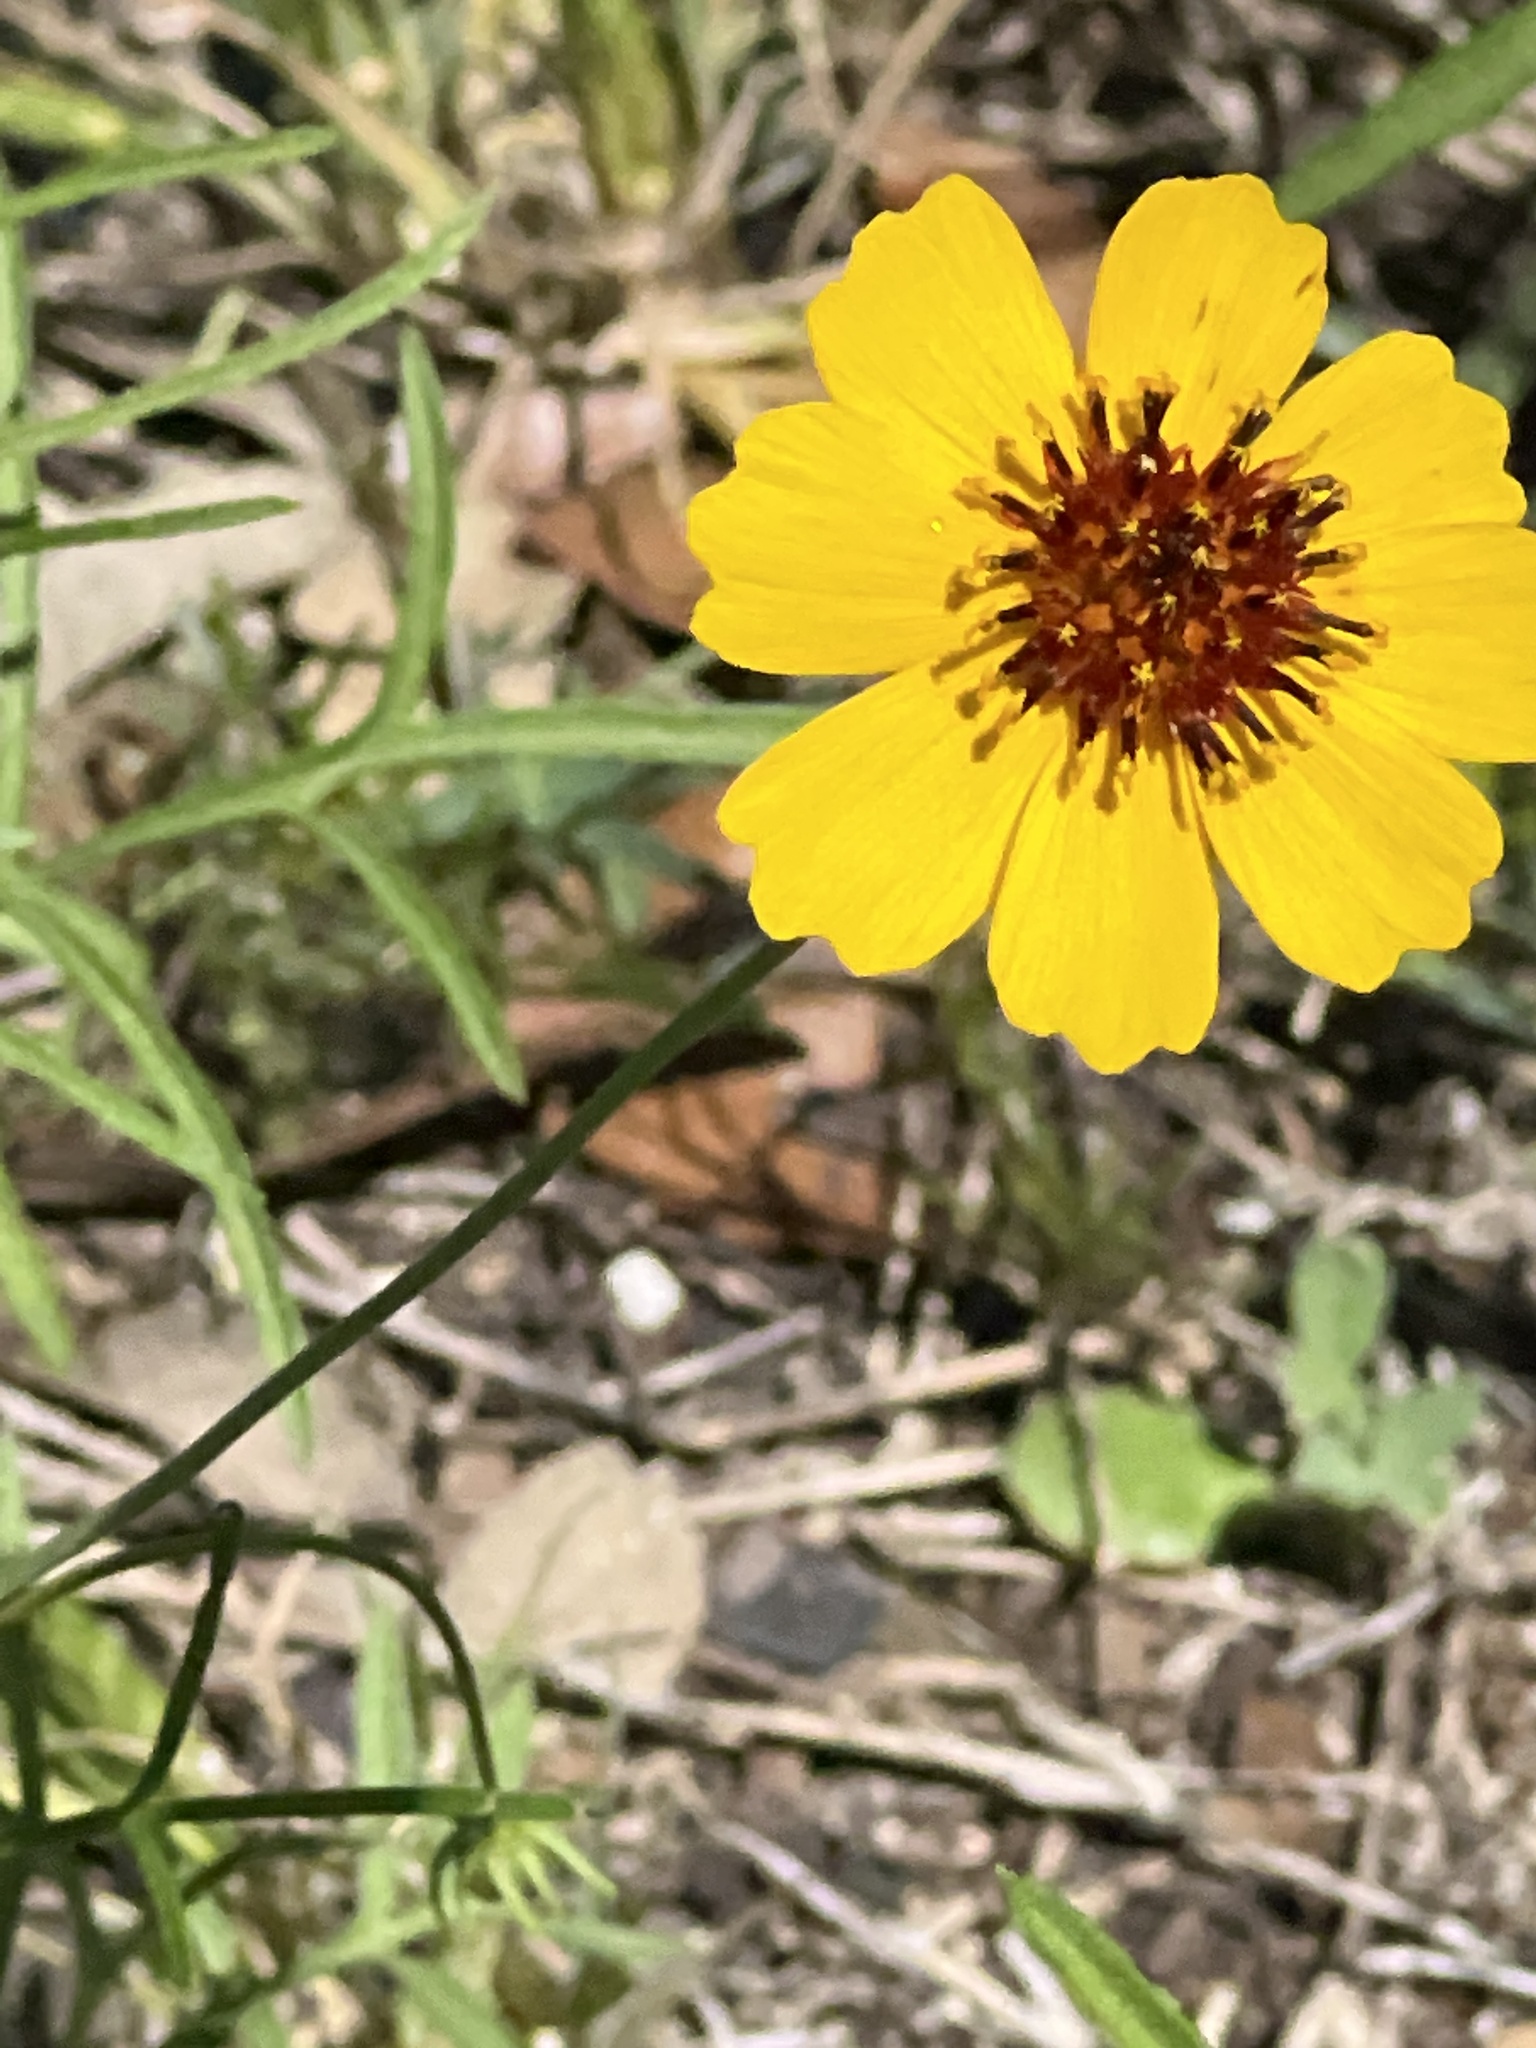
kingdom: Plantae
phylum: Tracheophyta
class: Magnoliopsida
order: Asterales
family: Asteraceae
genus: Thelesperma
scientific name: Thelesperma filifolium
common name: Stiff greenthread
